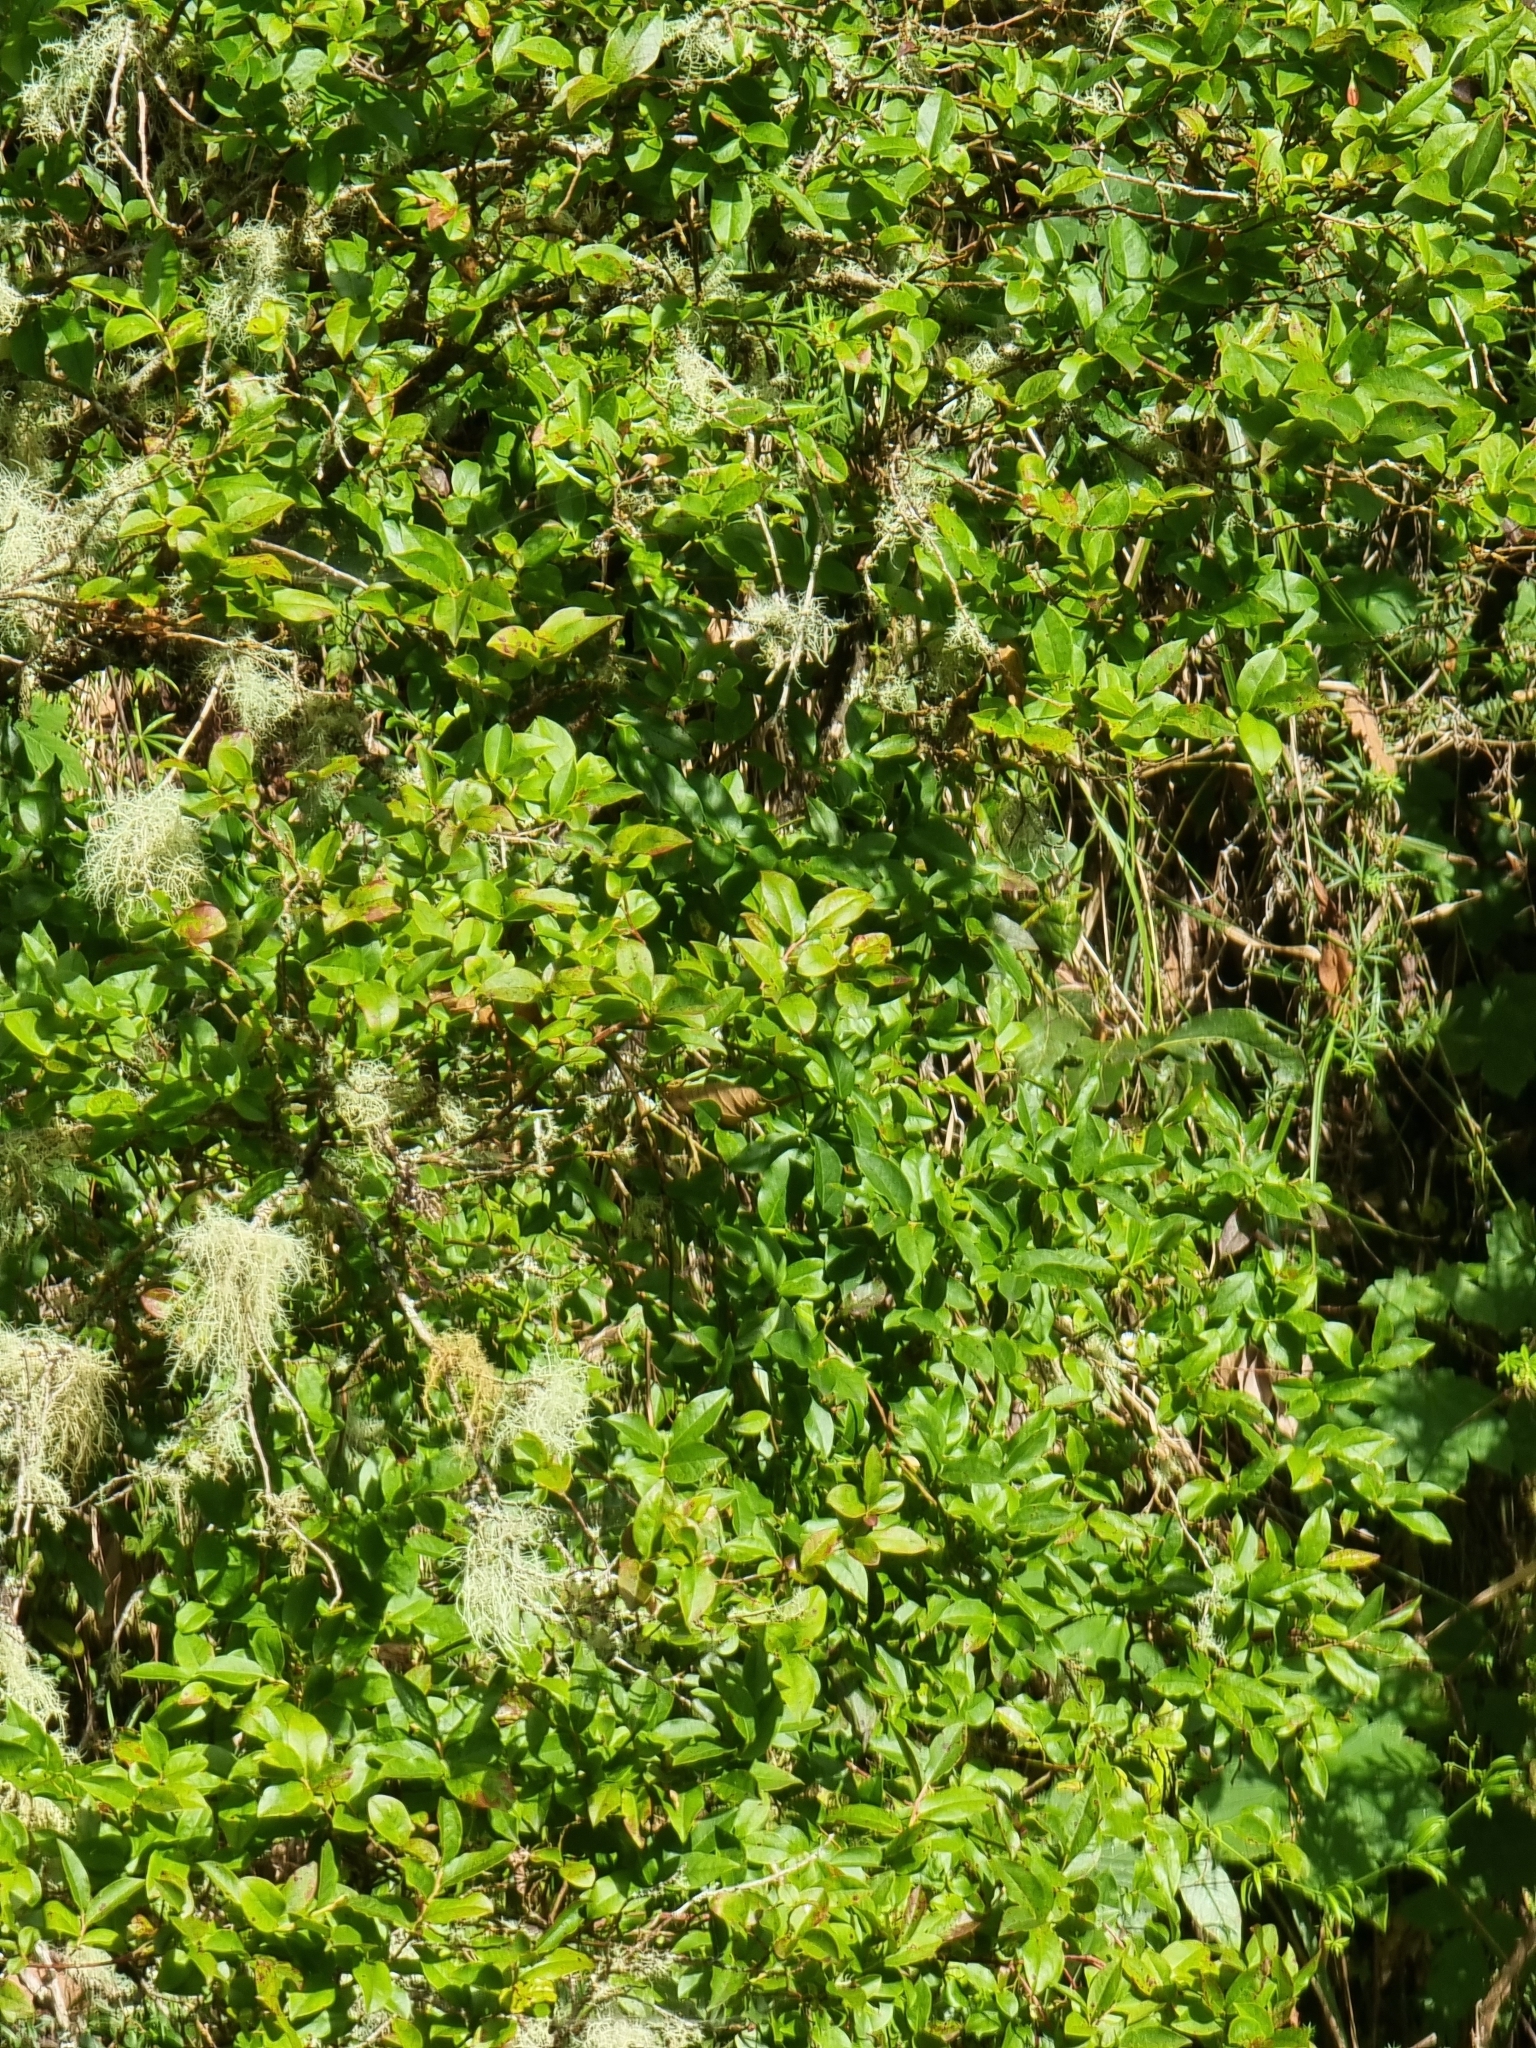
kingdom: Plantae
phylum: Tracheophyta
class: Magnoliopsida
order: Ericales
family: Ericaceae
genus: Vaccinium
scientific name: Vaccinium padifolium
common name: Madeiran blueberry
